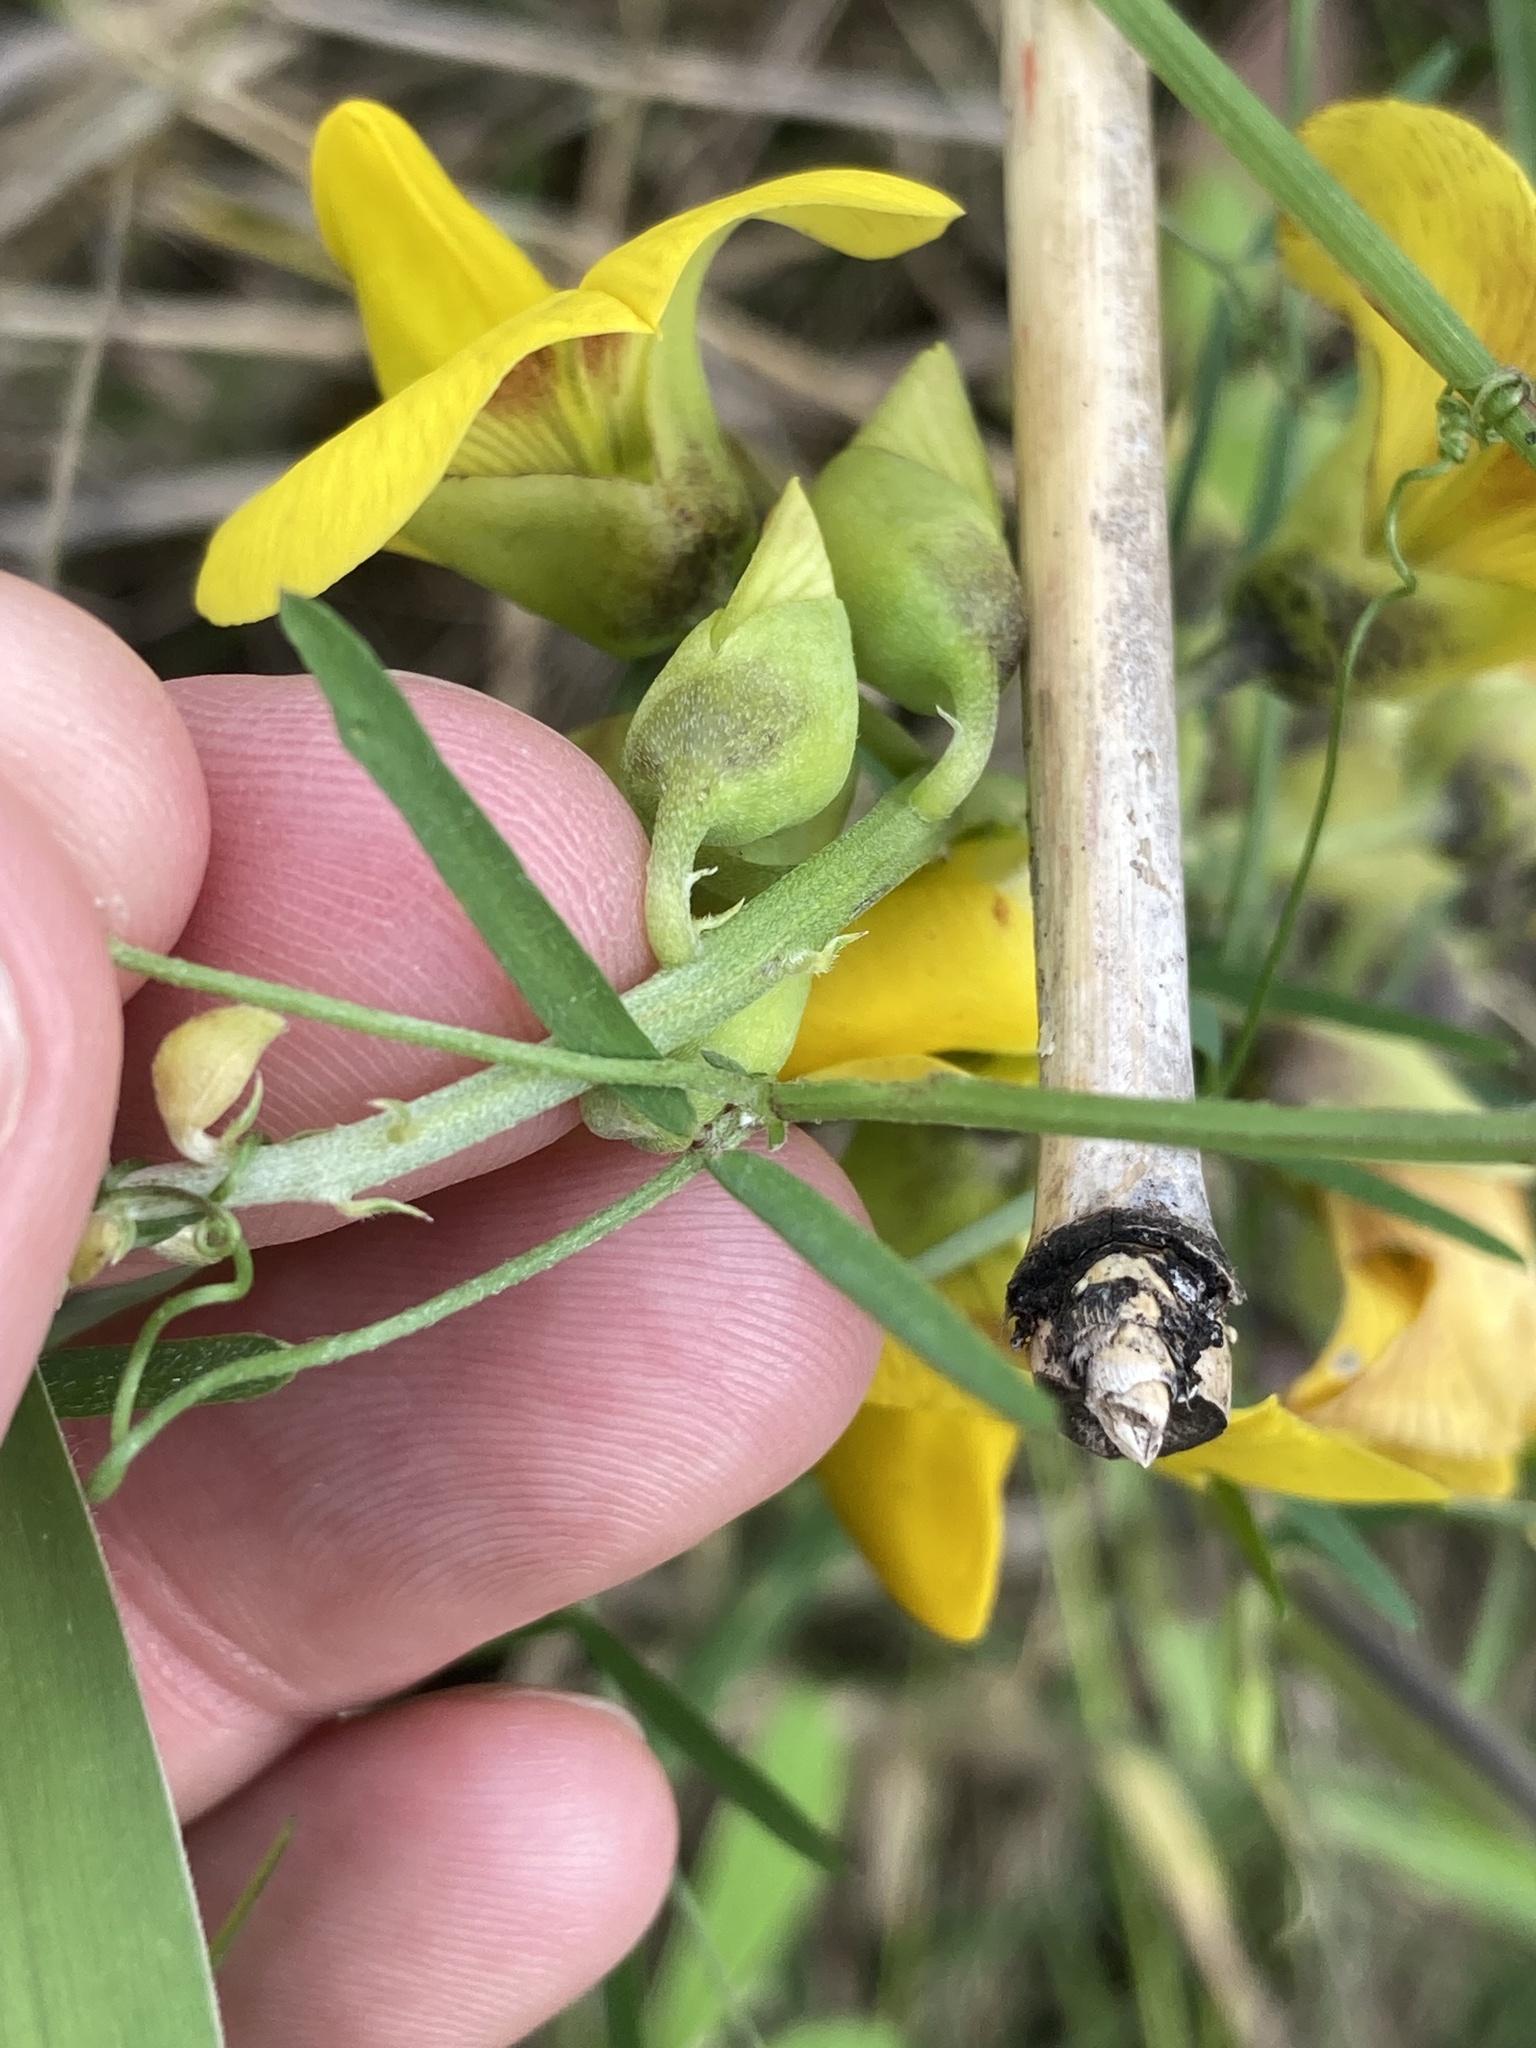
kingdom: Plantae
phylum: Tracheophyta
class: Magnoliopsida
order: Fabales
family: Fabaceae
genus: Vicia
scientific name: Vicia acutifolia
